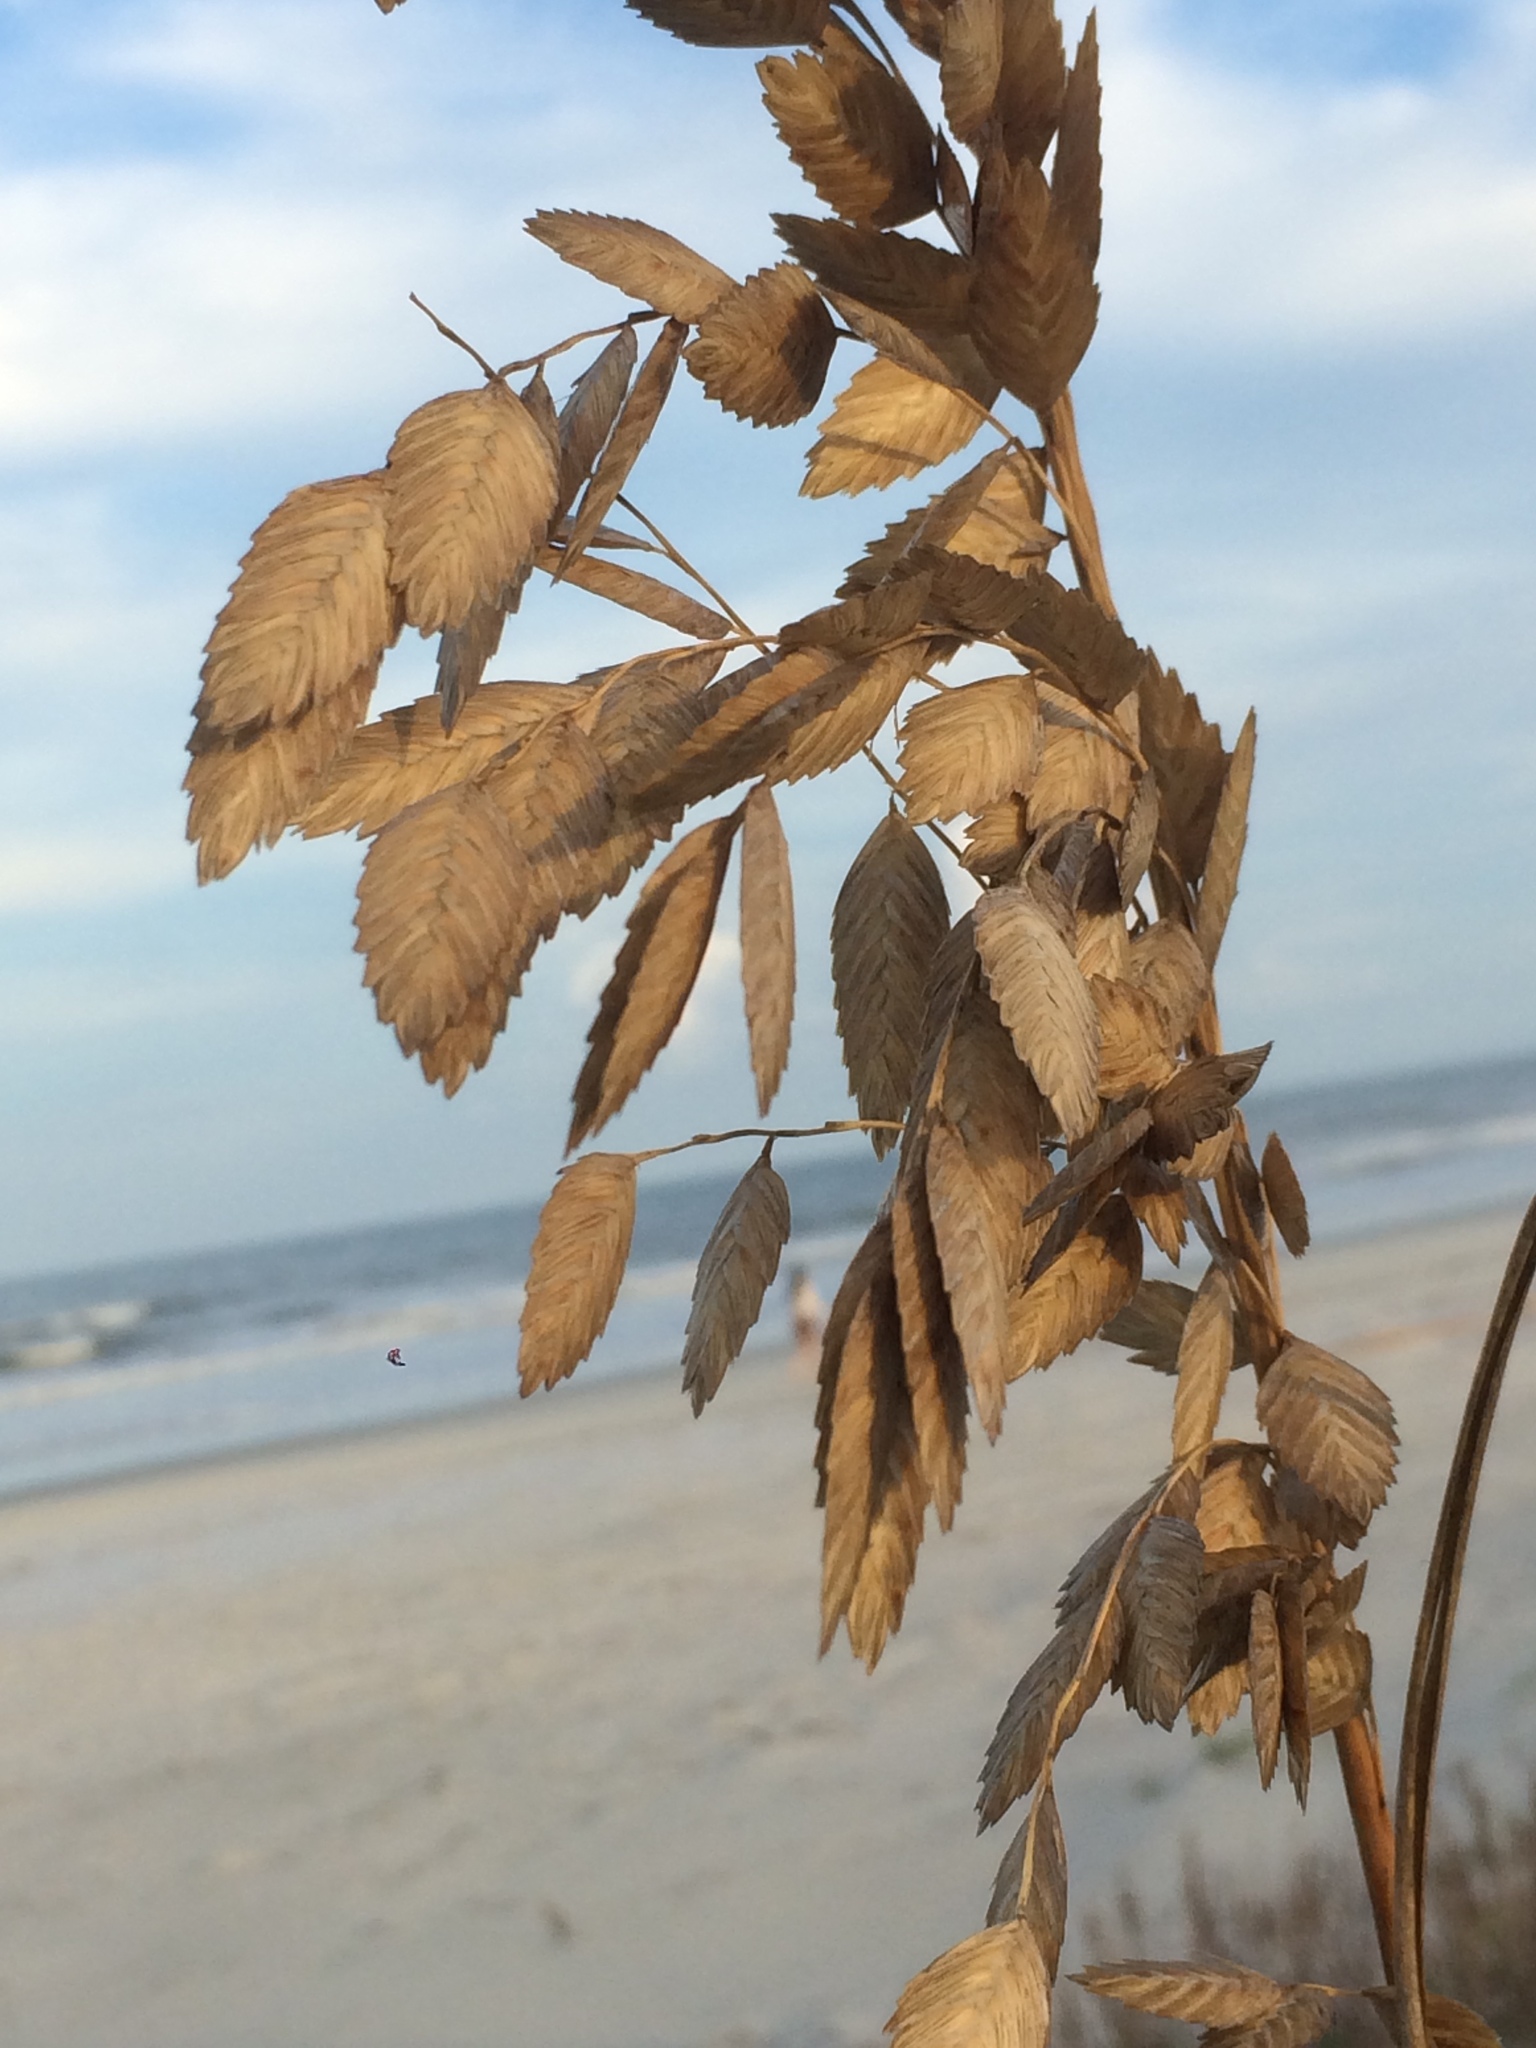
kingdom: Plantae
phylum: Tracheophyta
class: Liliopsida
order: Poales
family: Poaceae
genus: Uniola
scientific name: Uniola paniculata
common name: Seaside-oats
